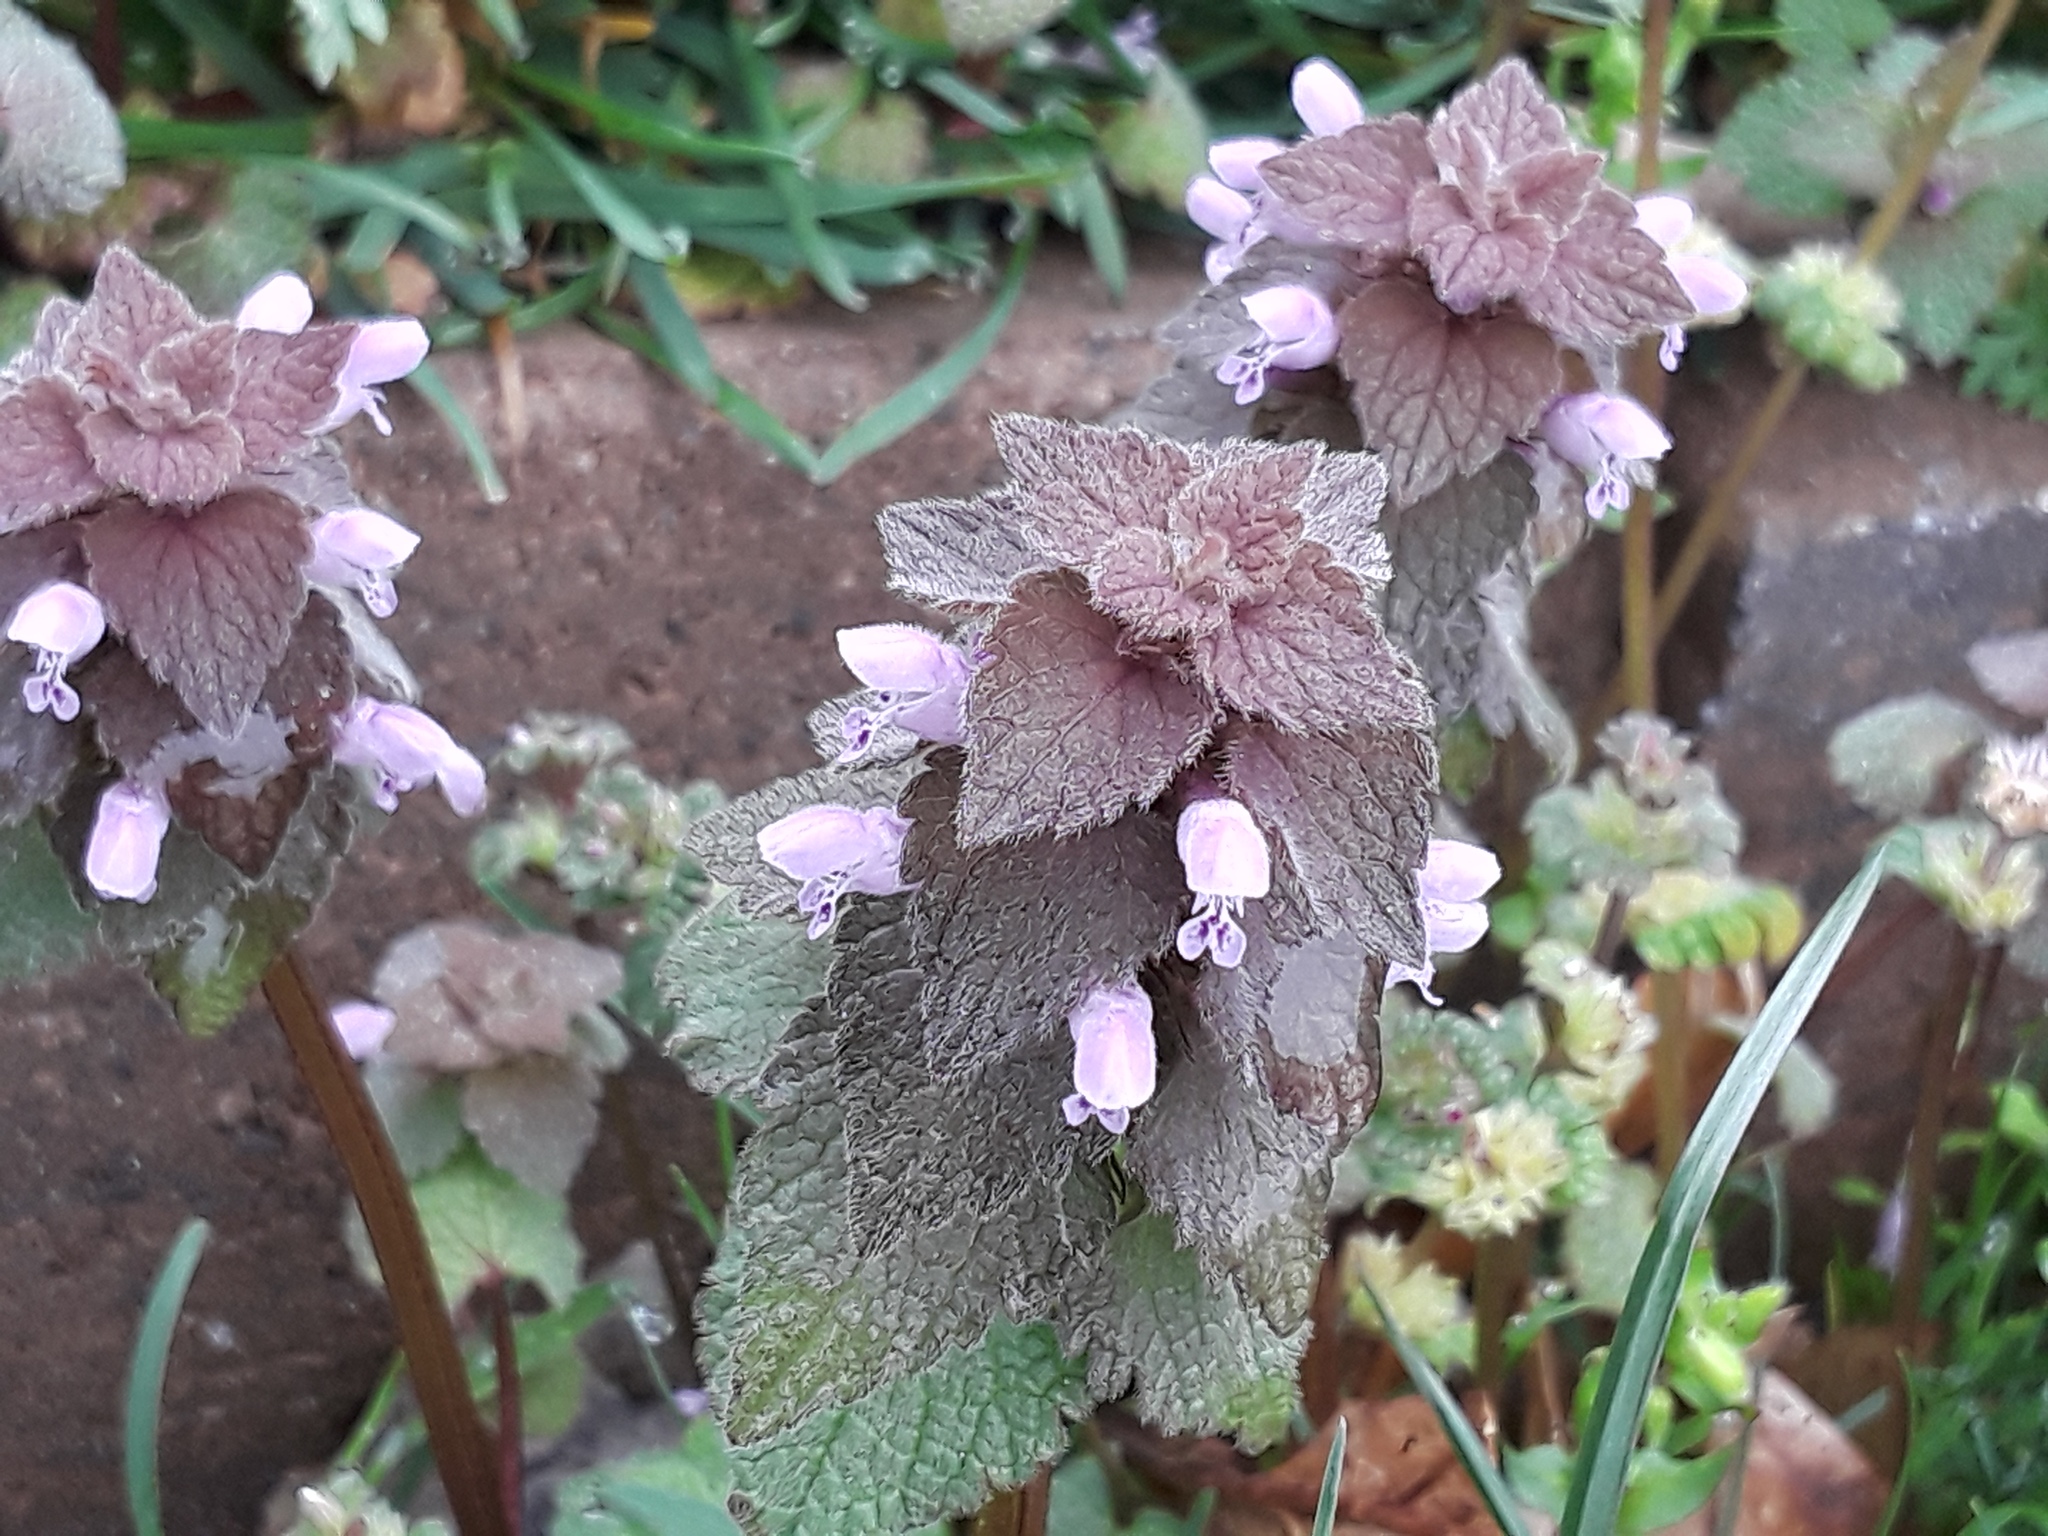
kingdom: Plantae
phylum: Tracheophyta
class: Magnoliopsida
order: Lamiales
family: Lamiaceae
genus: Lamium
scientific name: Lamium purpureum
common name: Red dead-nettle
